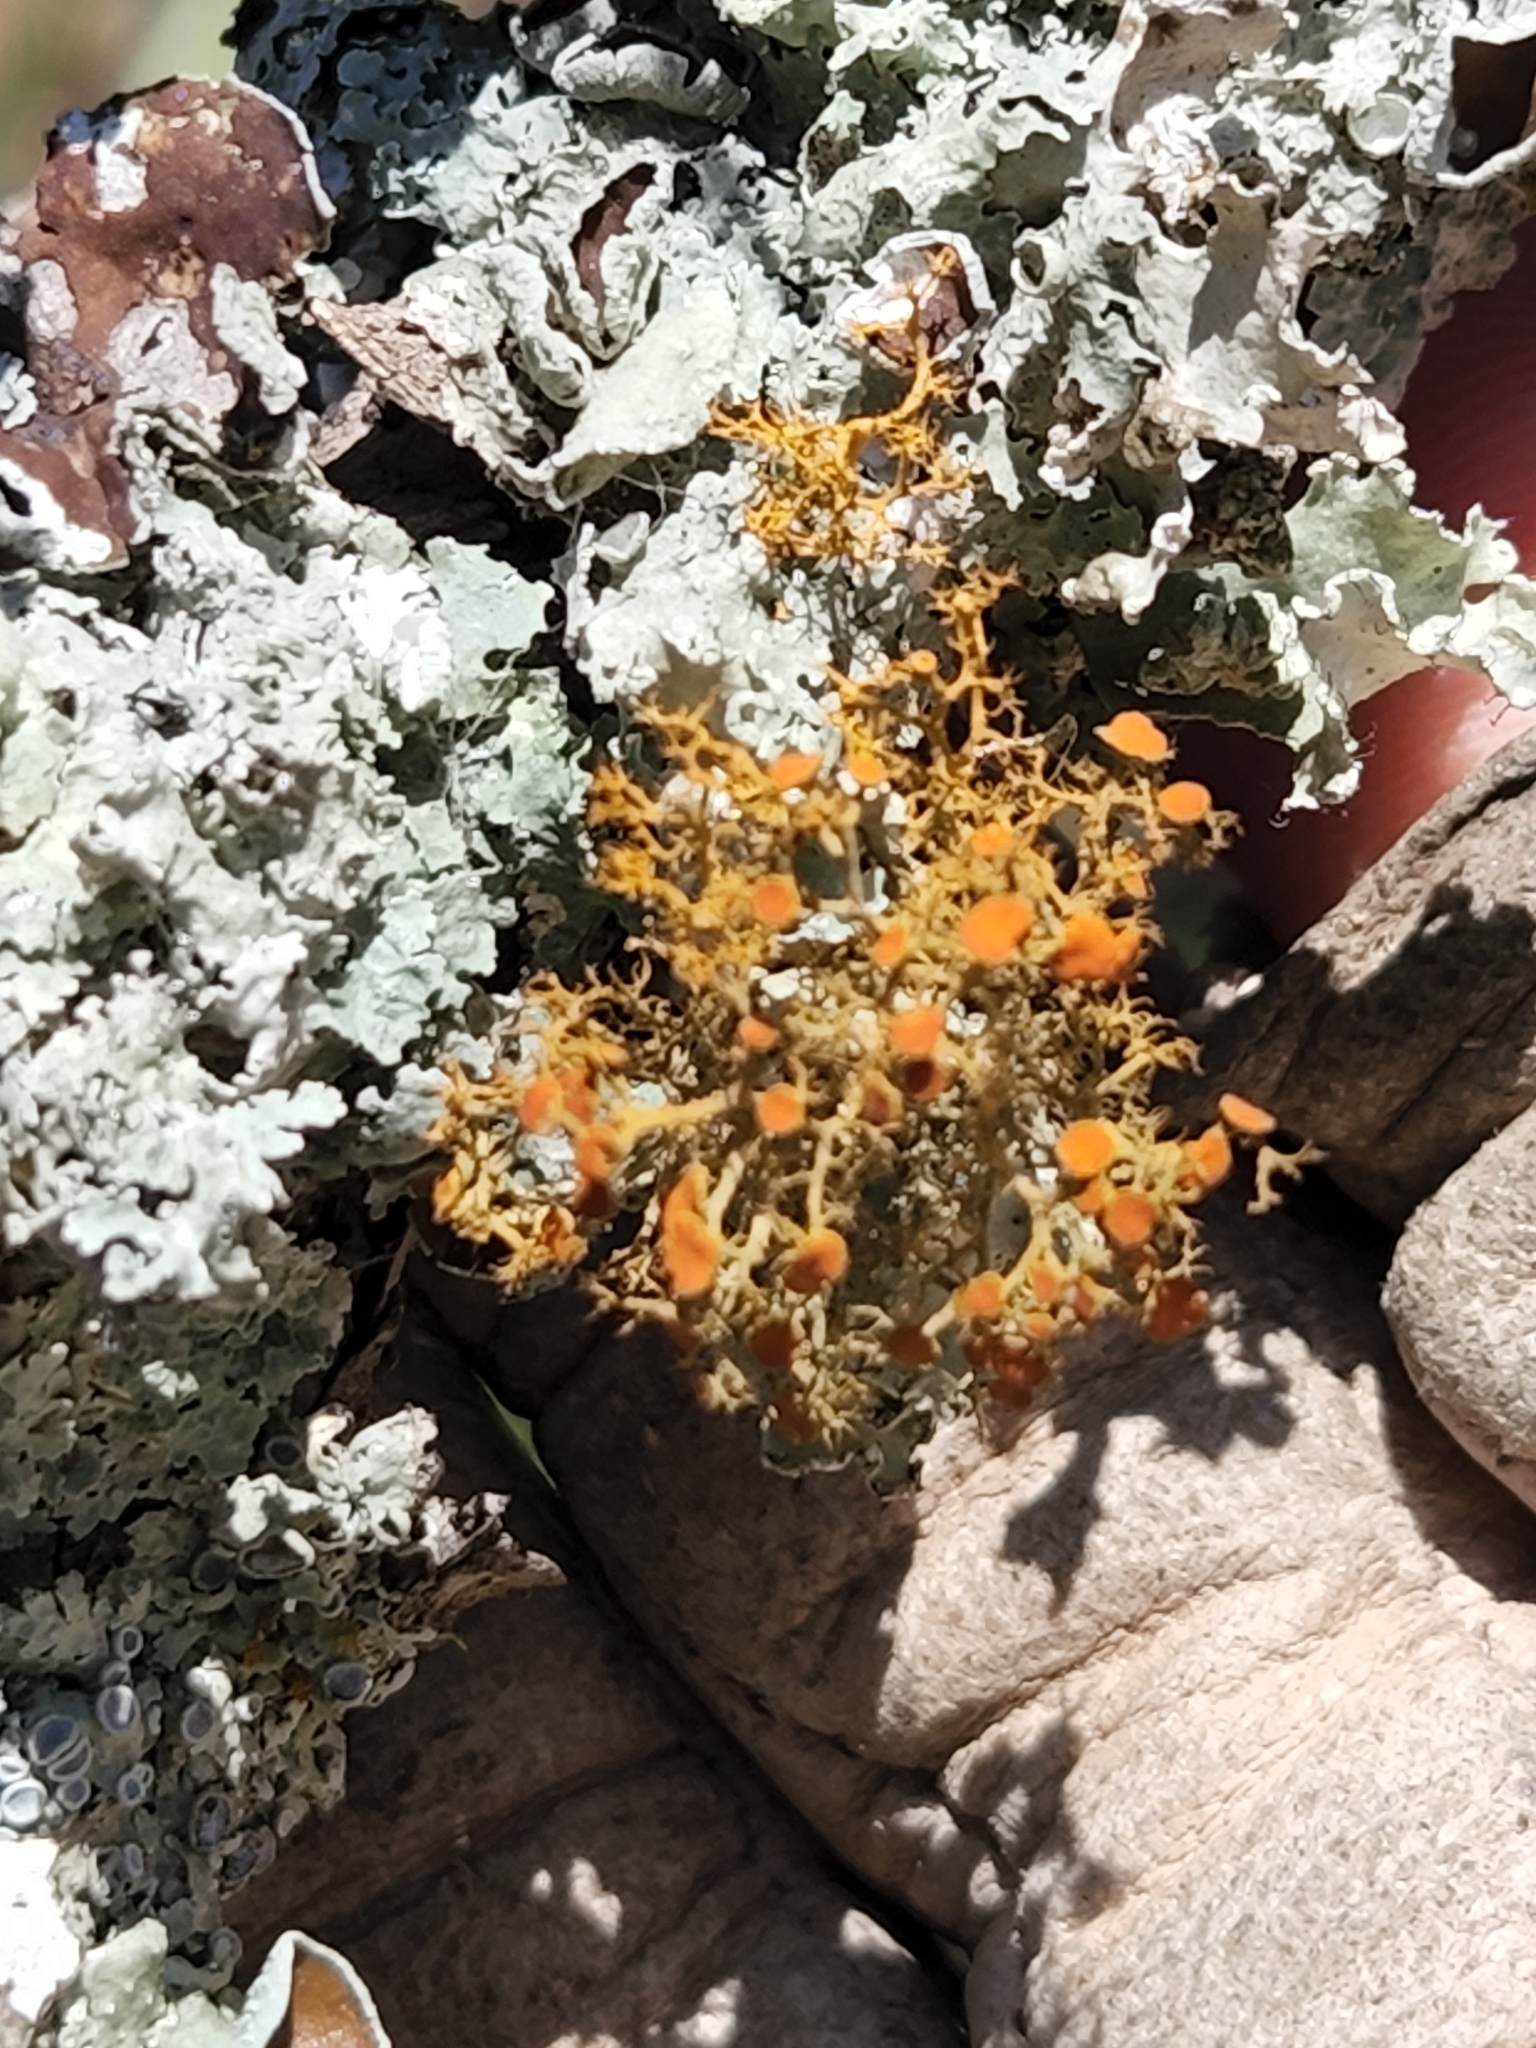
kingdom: Fungi
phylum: Ascomycota
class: Lecanoromycetes
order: Teloschistales
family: Teloschistaceae
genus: Teloschistes
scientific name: Teloschistes exilis
